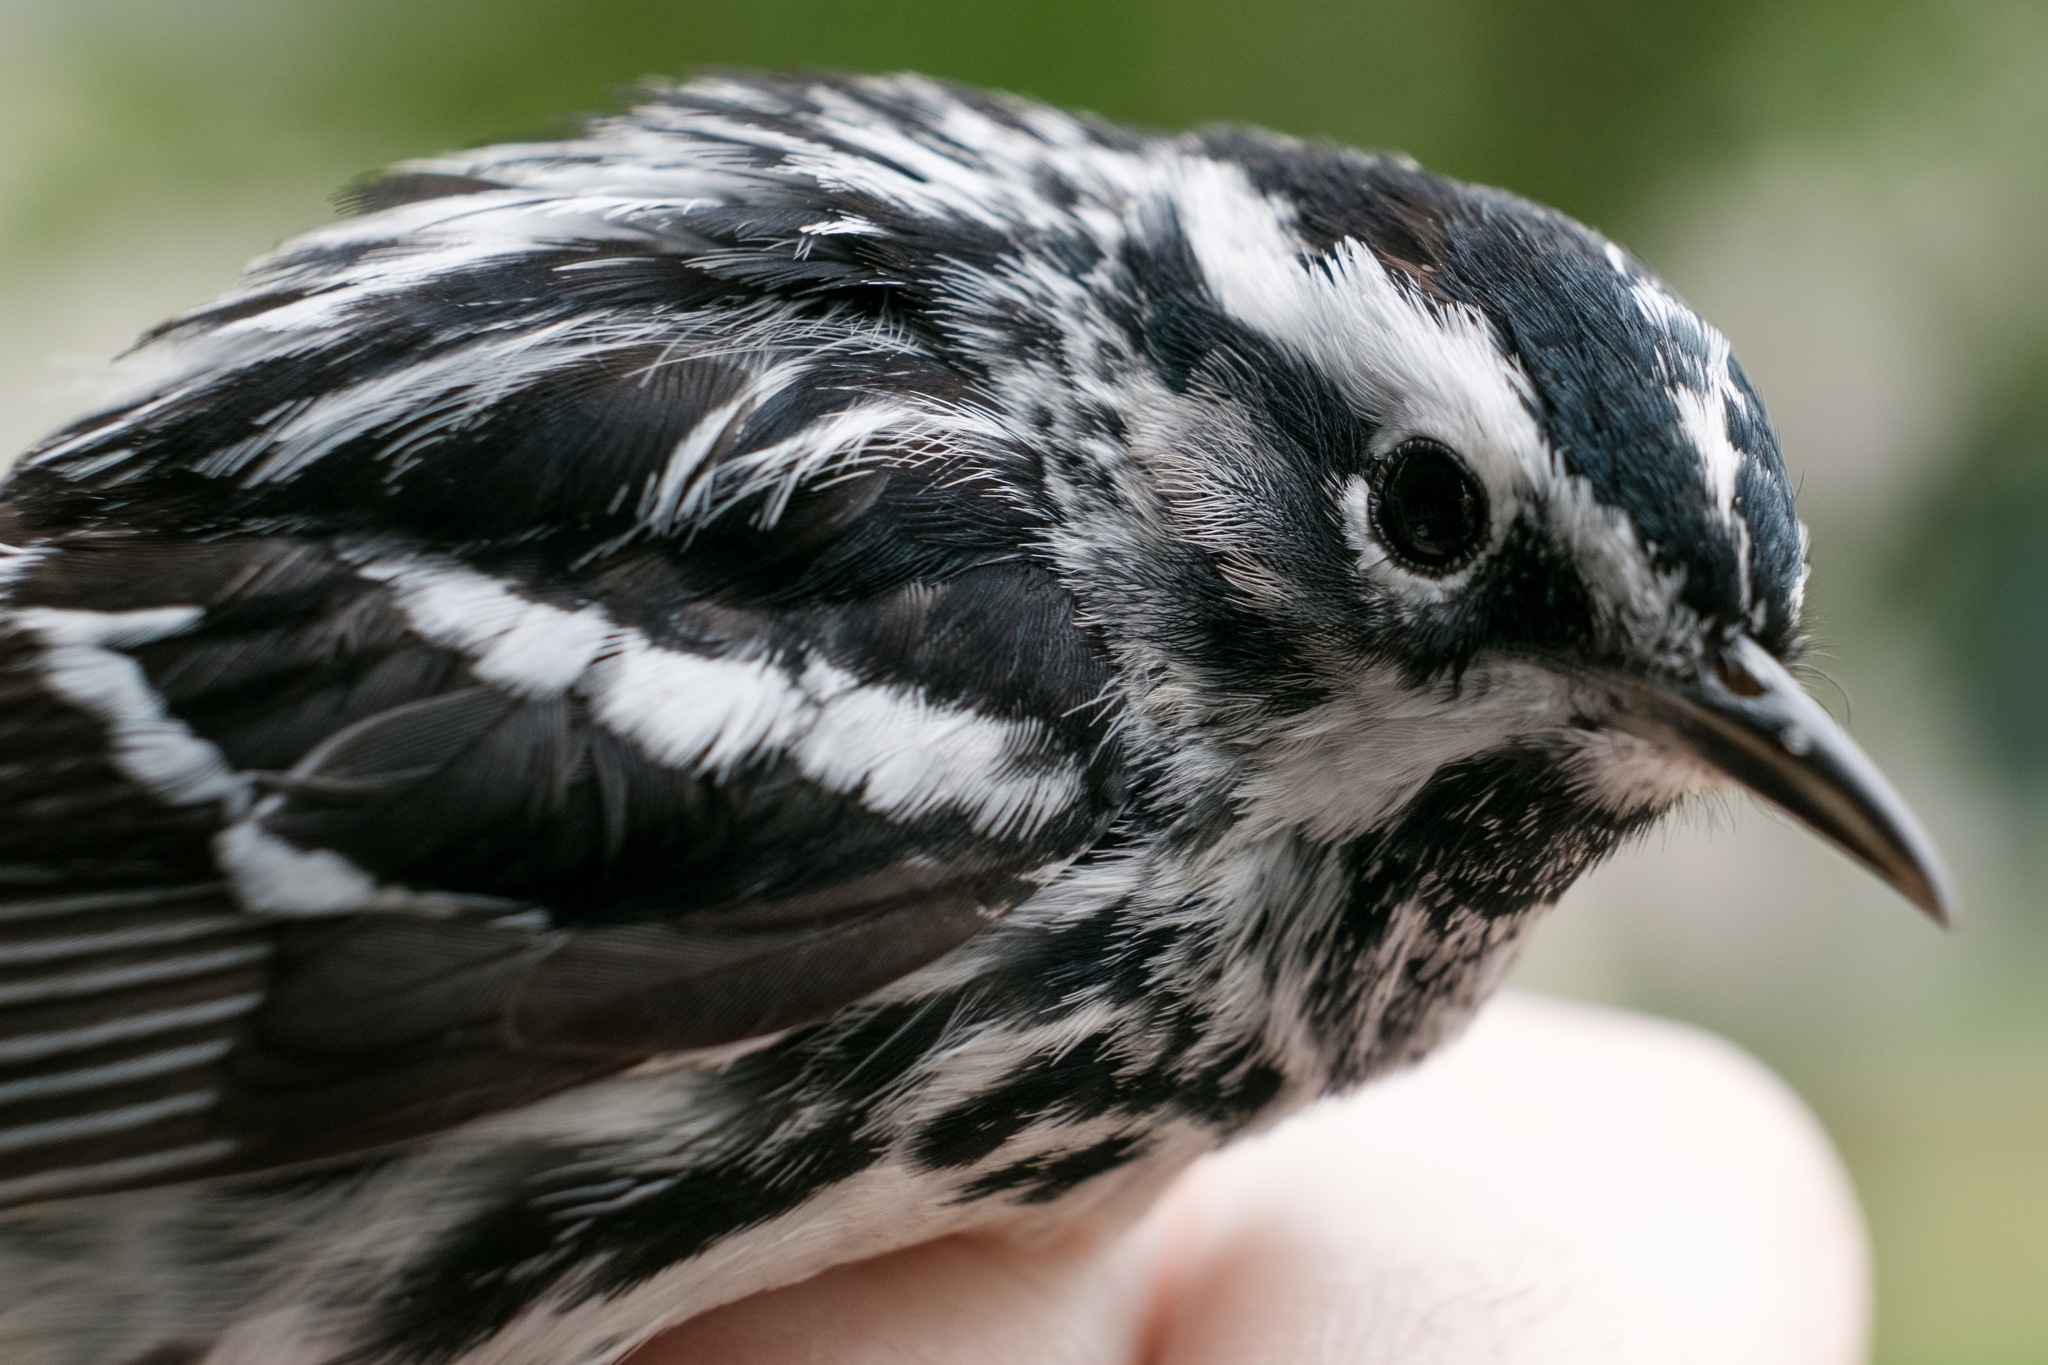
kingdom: Animalia
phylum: Chordata
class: Aves
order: Passeriformes
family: Parulidae
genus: Mniotilta
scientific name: Mniotilta varia
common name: Black-and-white warbler
